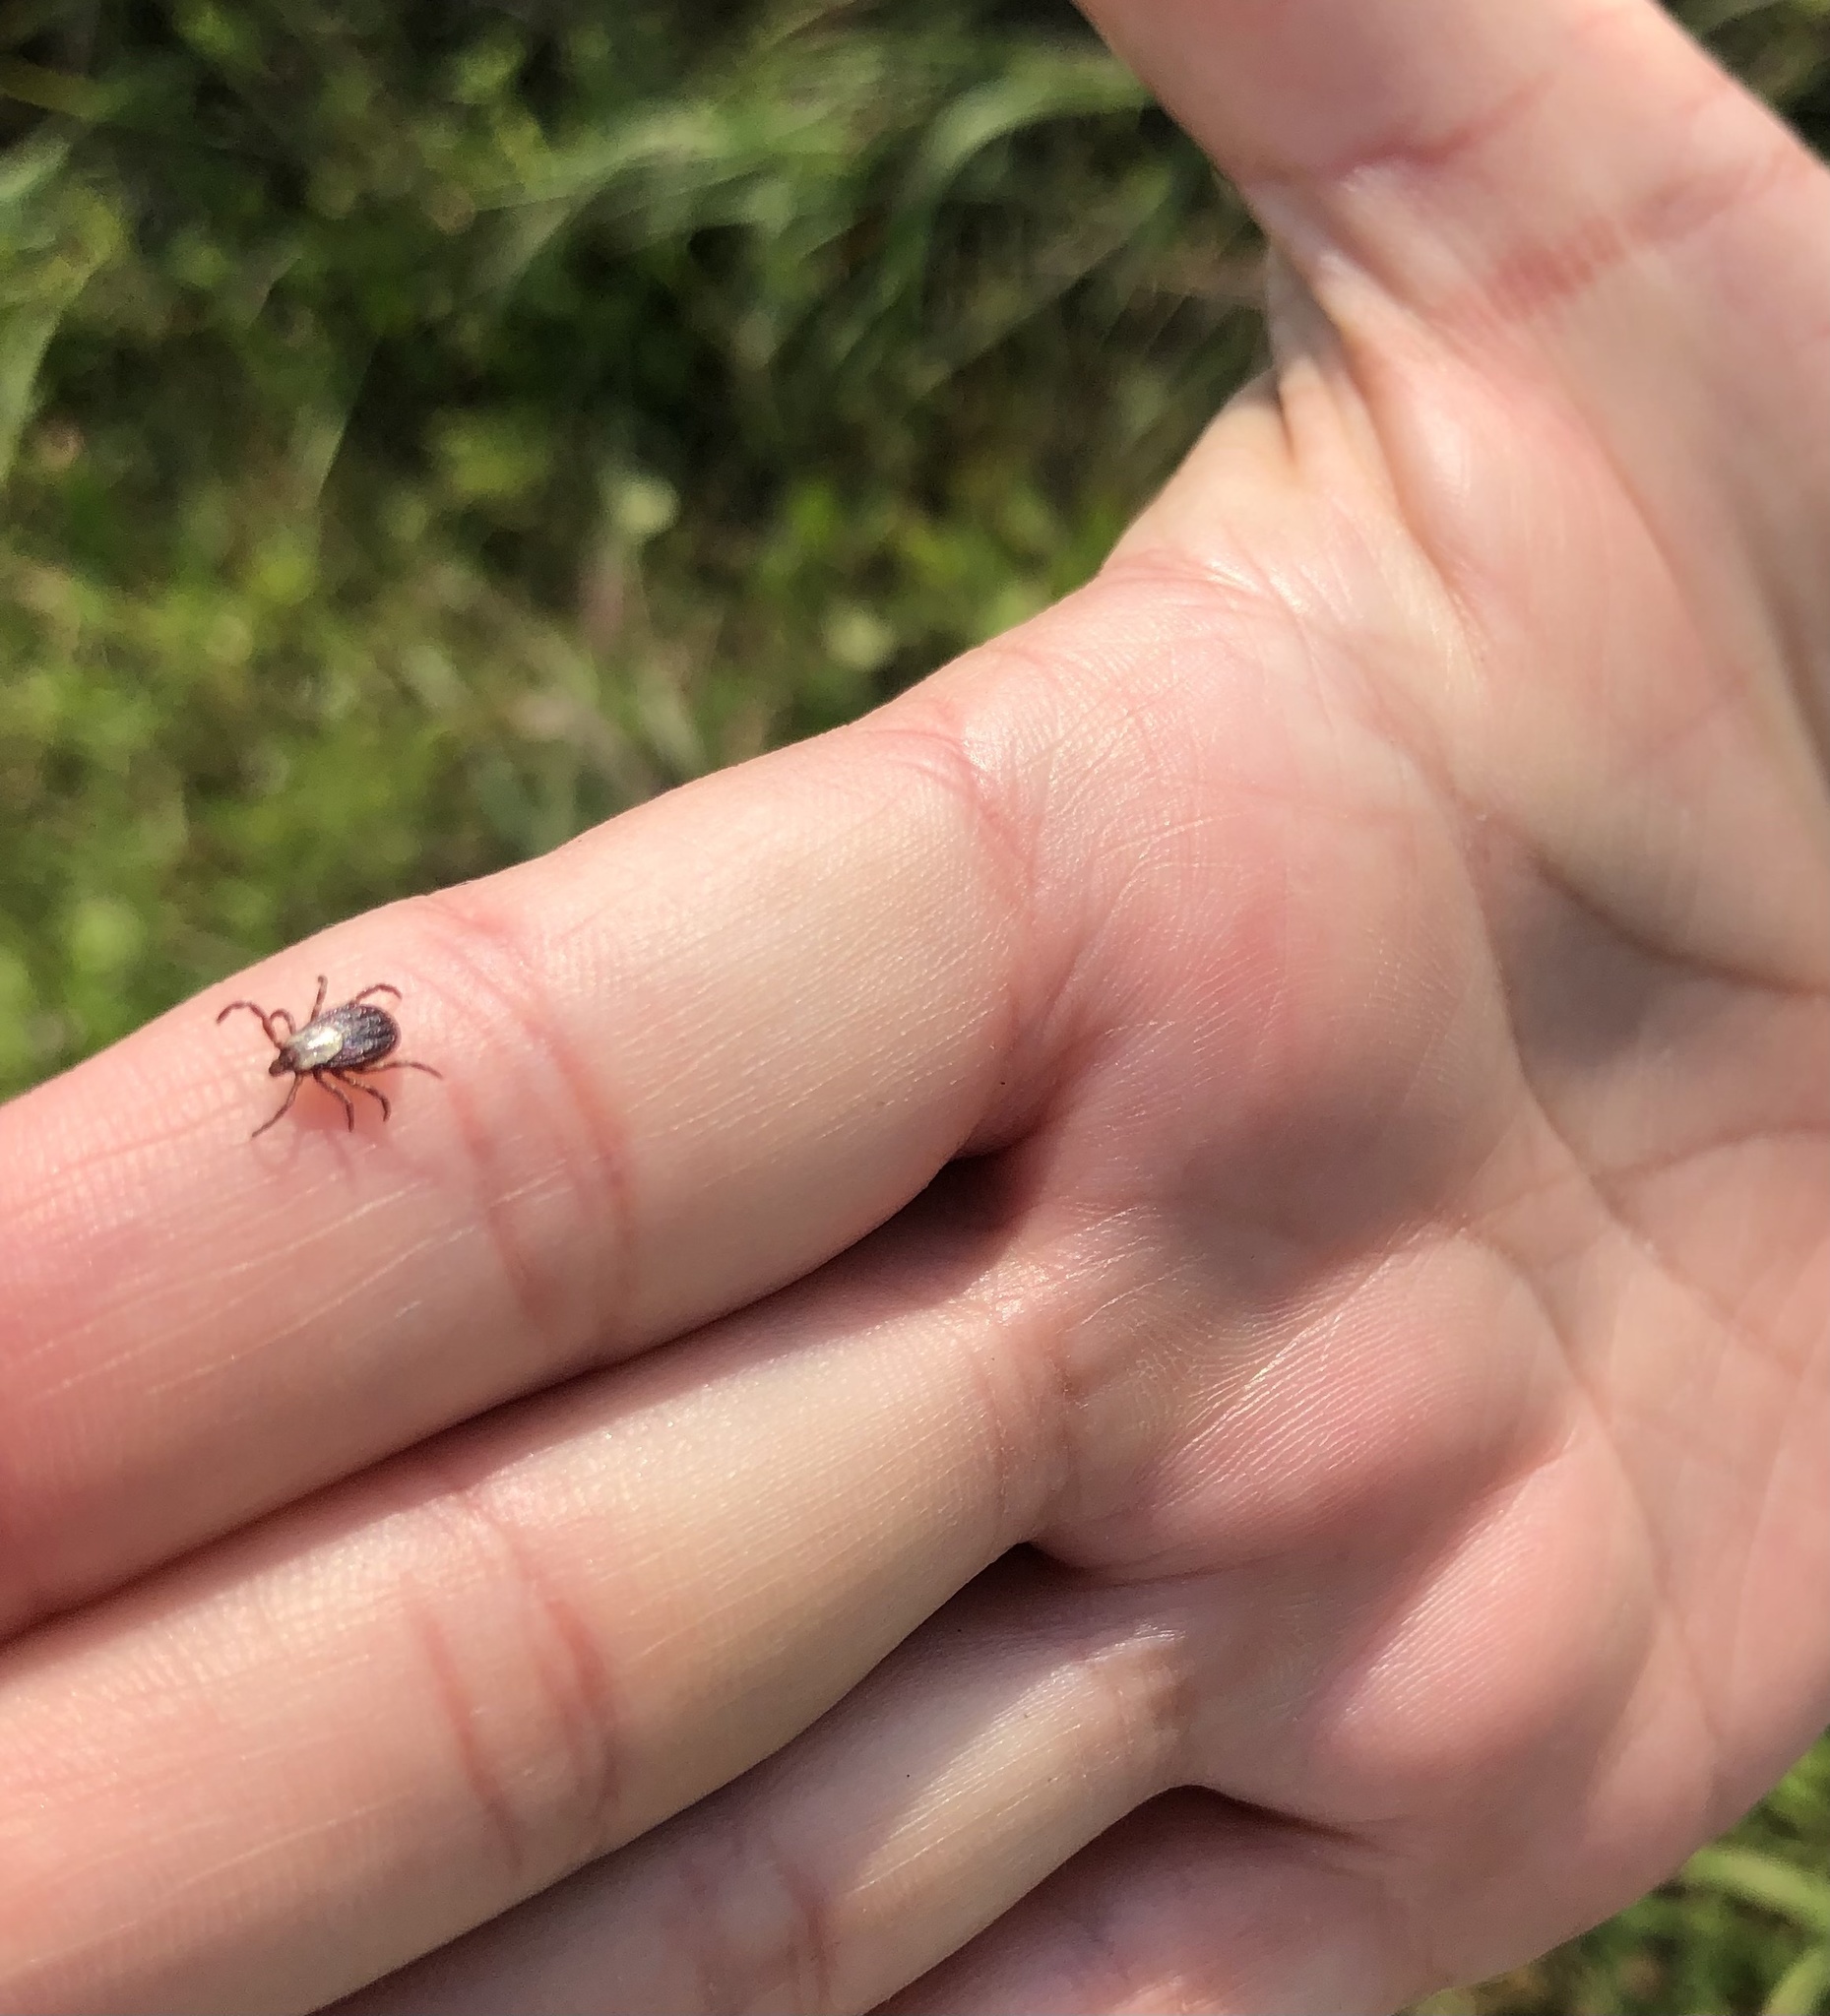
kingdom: Animalia
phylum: Arthropoda
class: Arachnida
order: Ixodida
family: Ixodidae
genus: Dermacentor
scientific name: Dermacentor variabilis
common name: American dog tick
